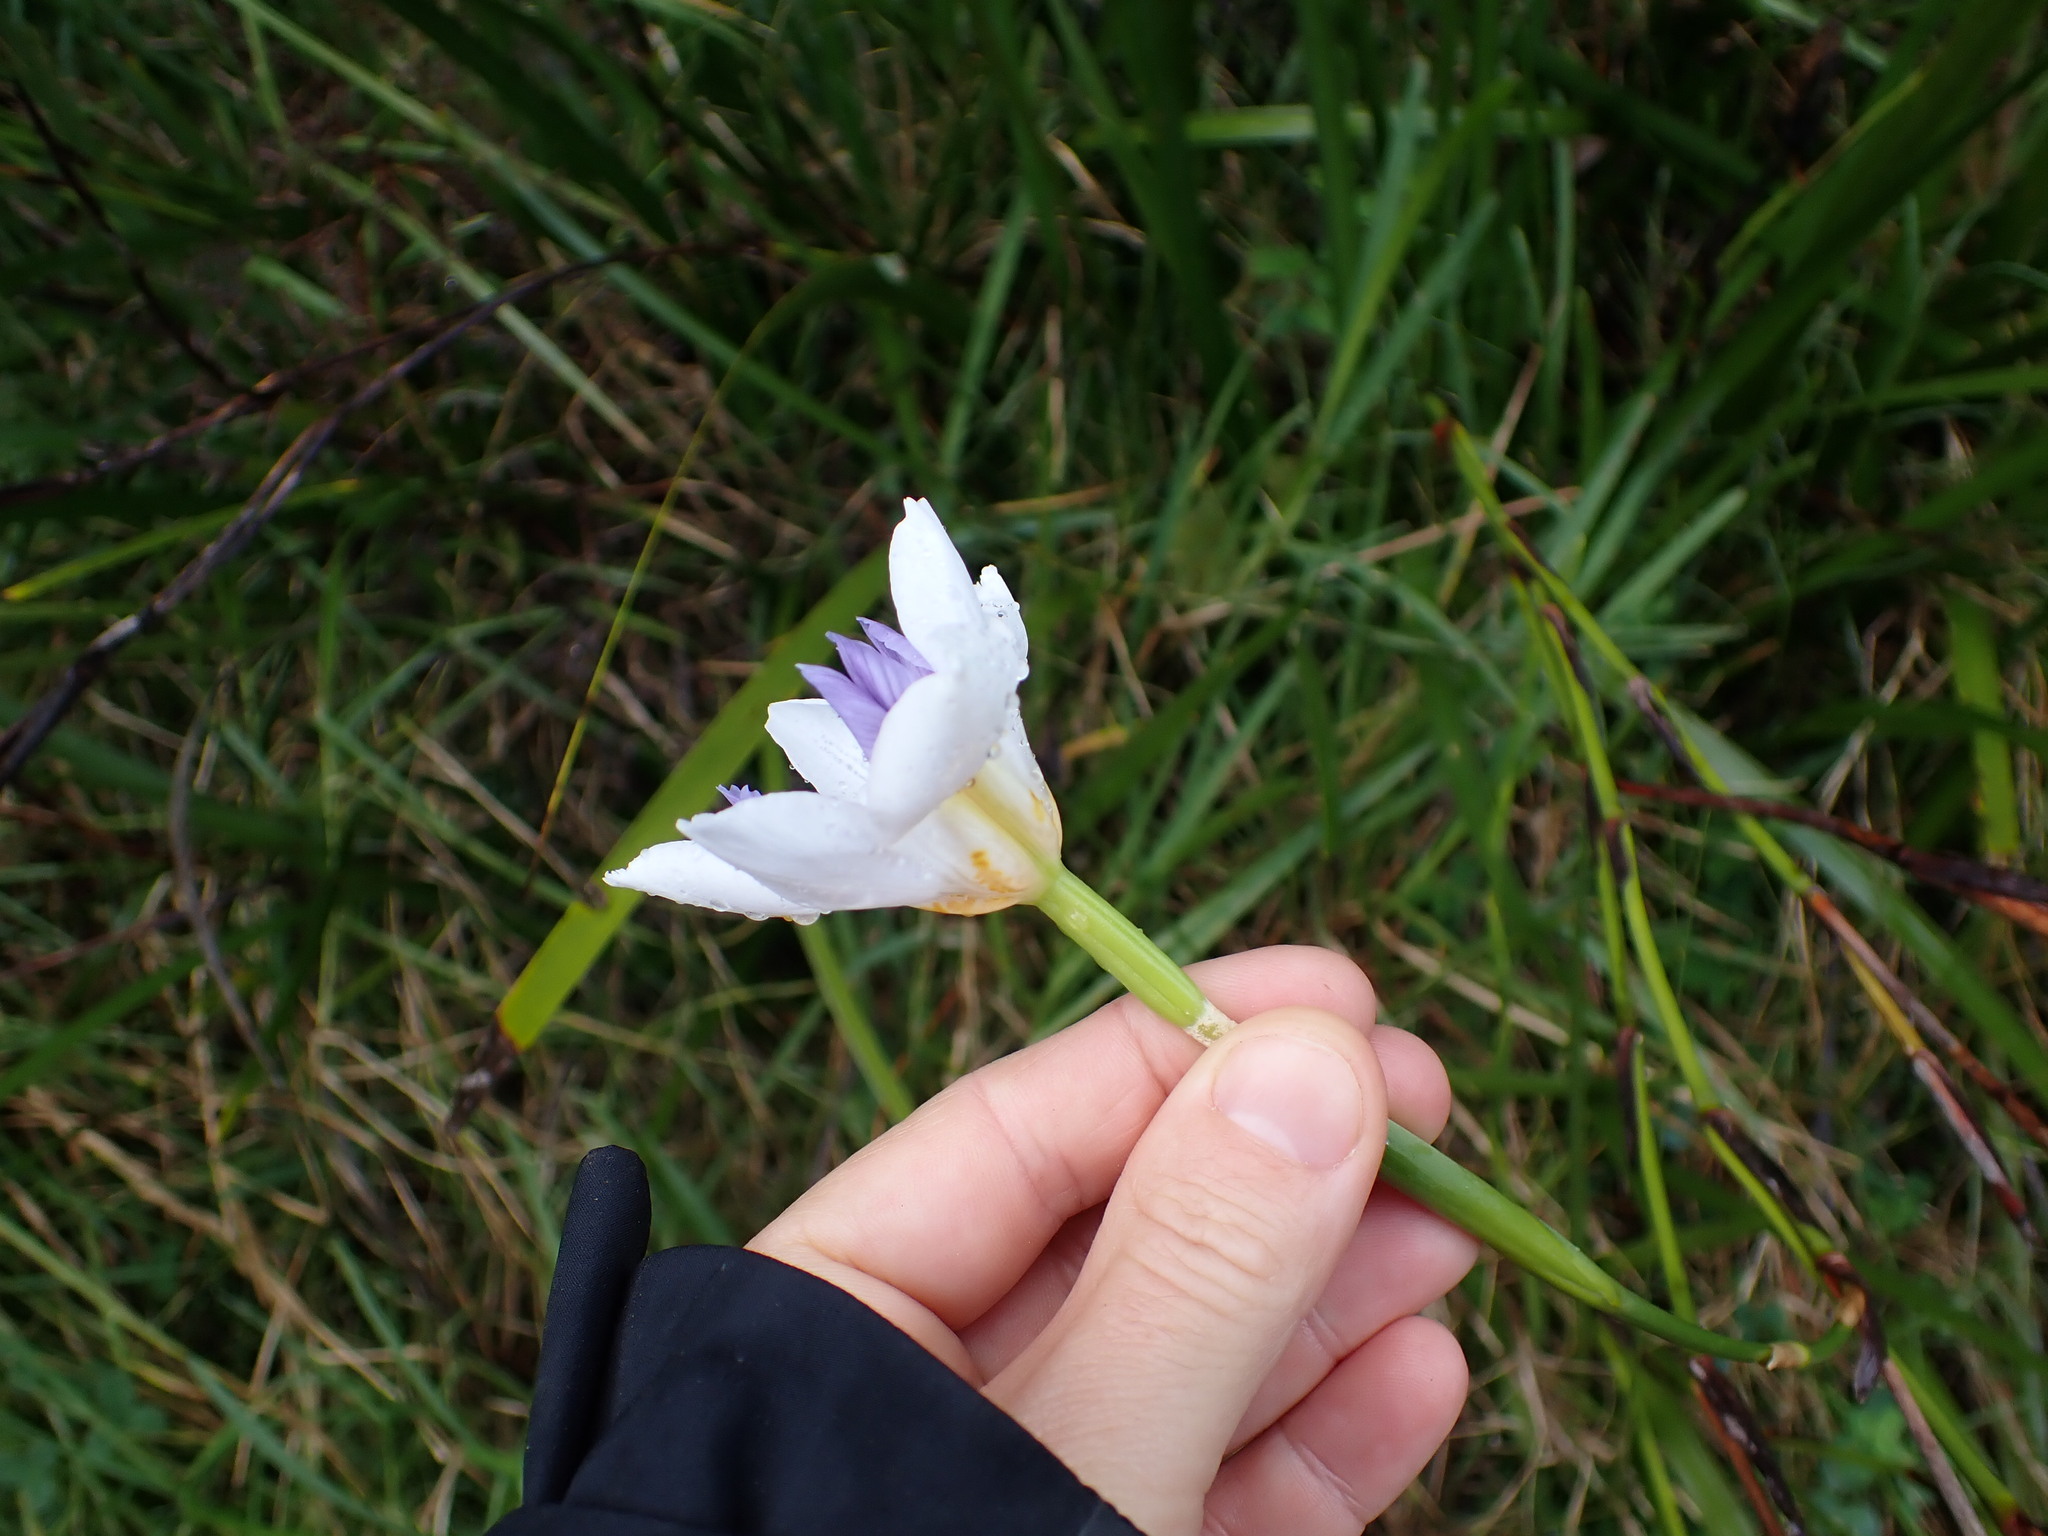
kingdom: Plantae
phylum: Tracheophyta
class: Liliopsida
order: Asparagales
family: Iridaceae
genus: Dietes
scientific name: Dietes grandiflora
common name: Wild iris
